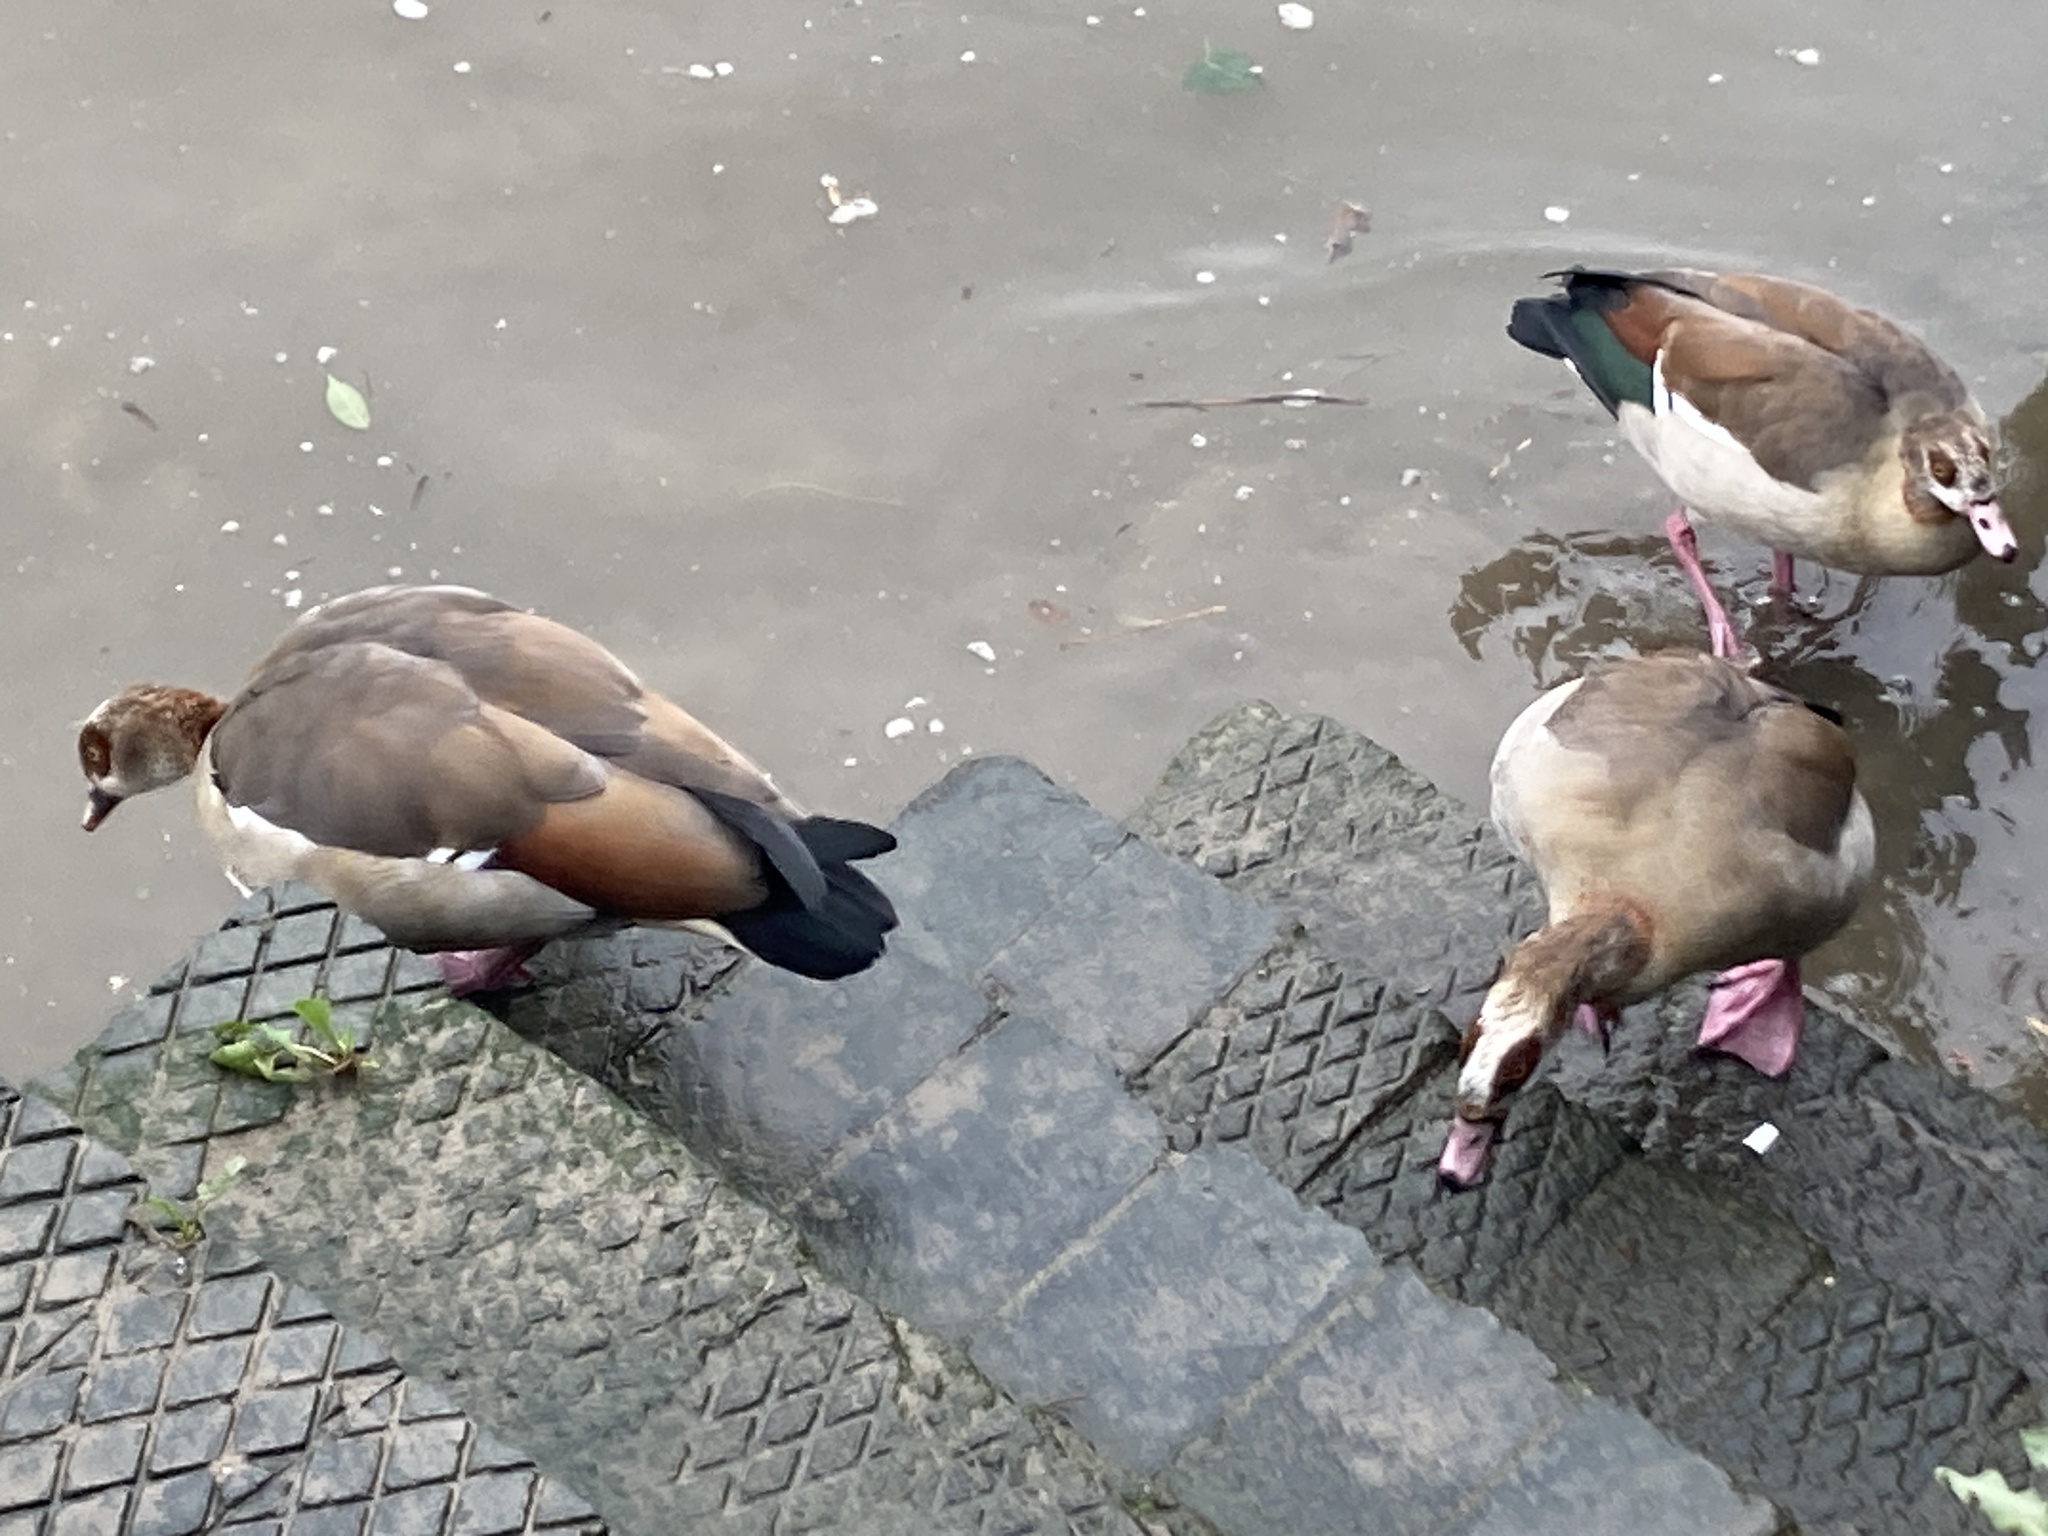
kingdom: Animalia
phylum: Chordata
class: Aves
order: Anseriformes
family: Anatidae
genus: Alopochen
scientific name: Alopochen aegyptiaca
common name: Egyptian goose
